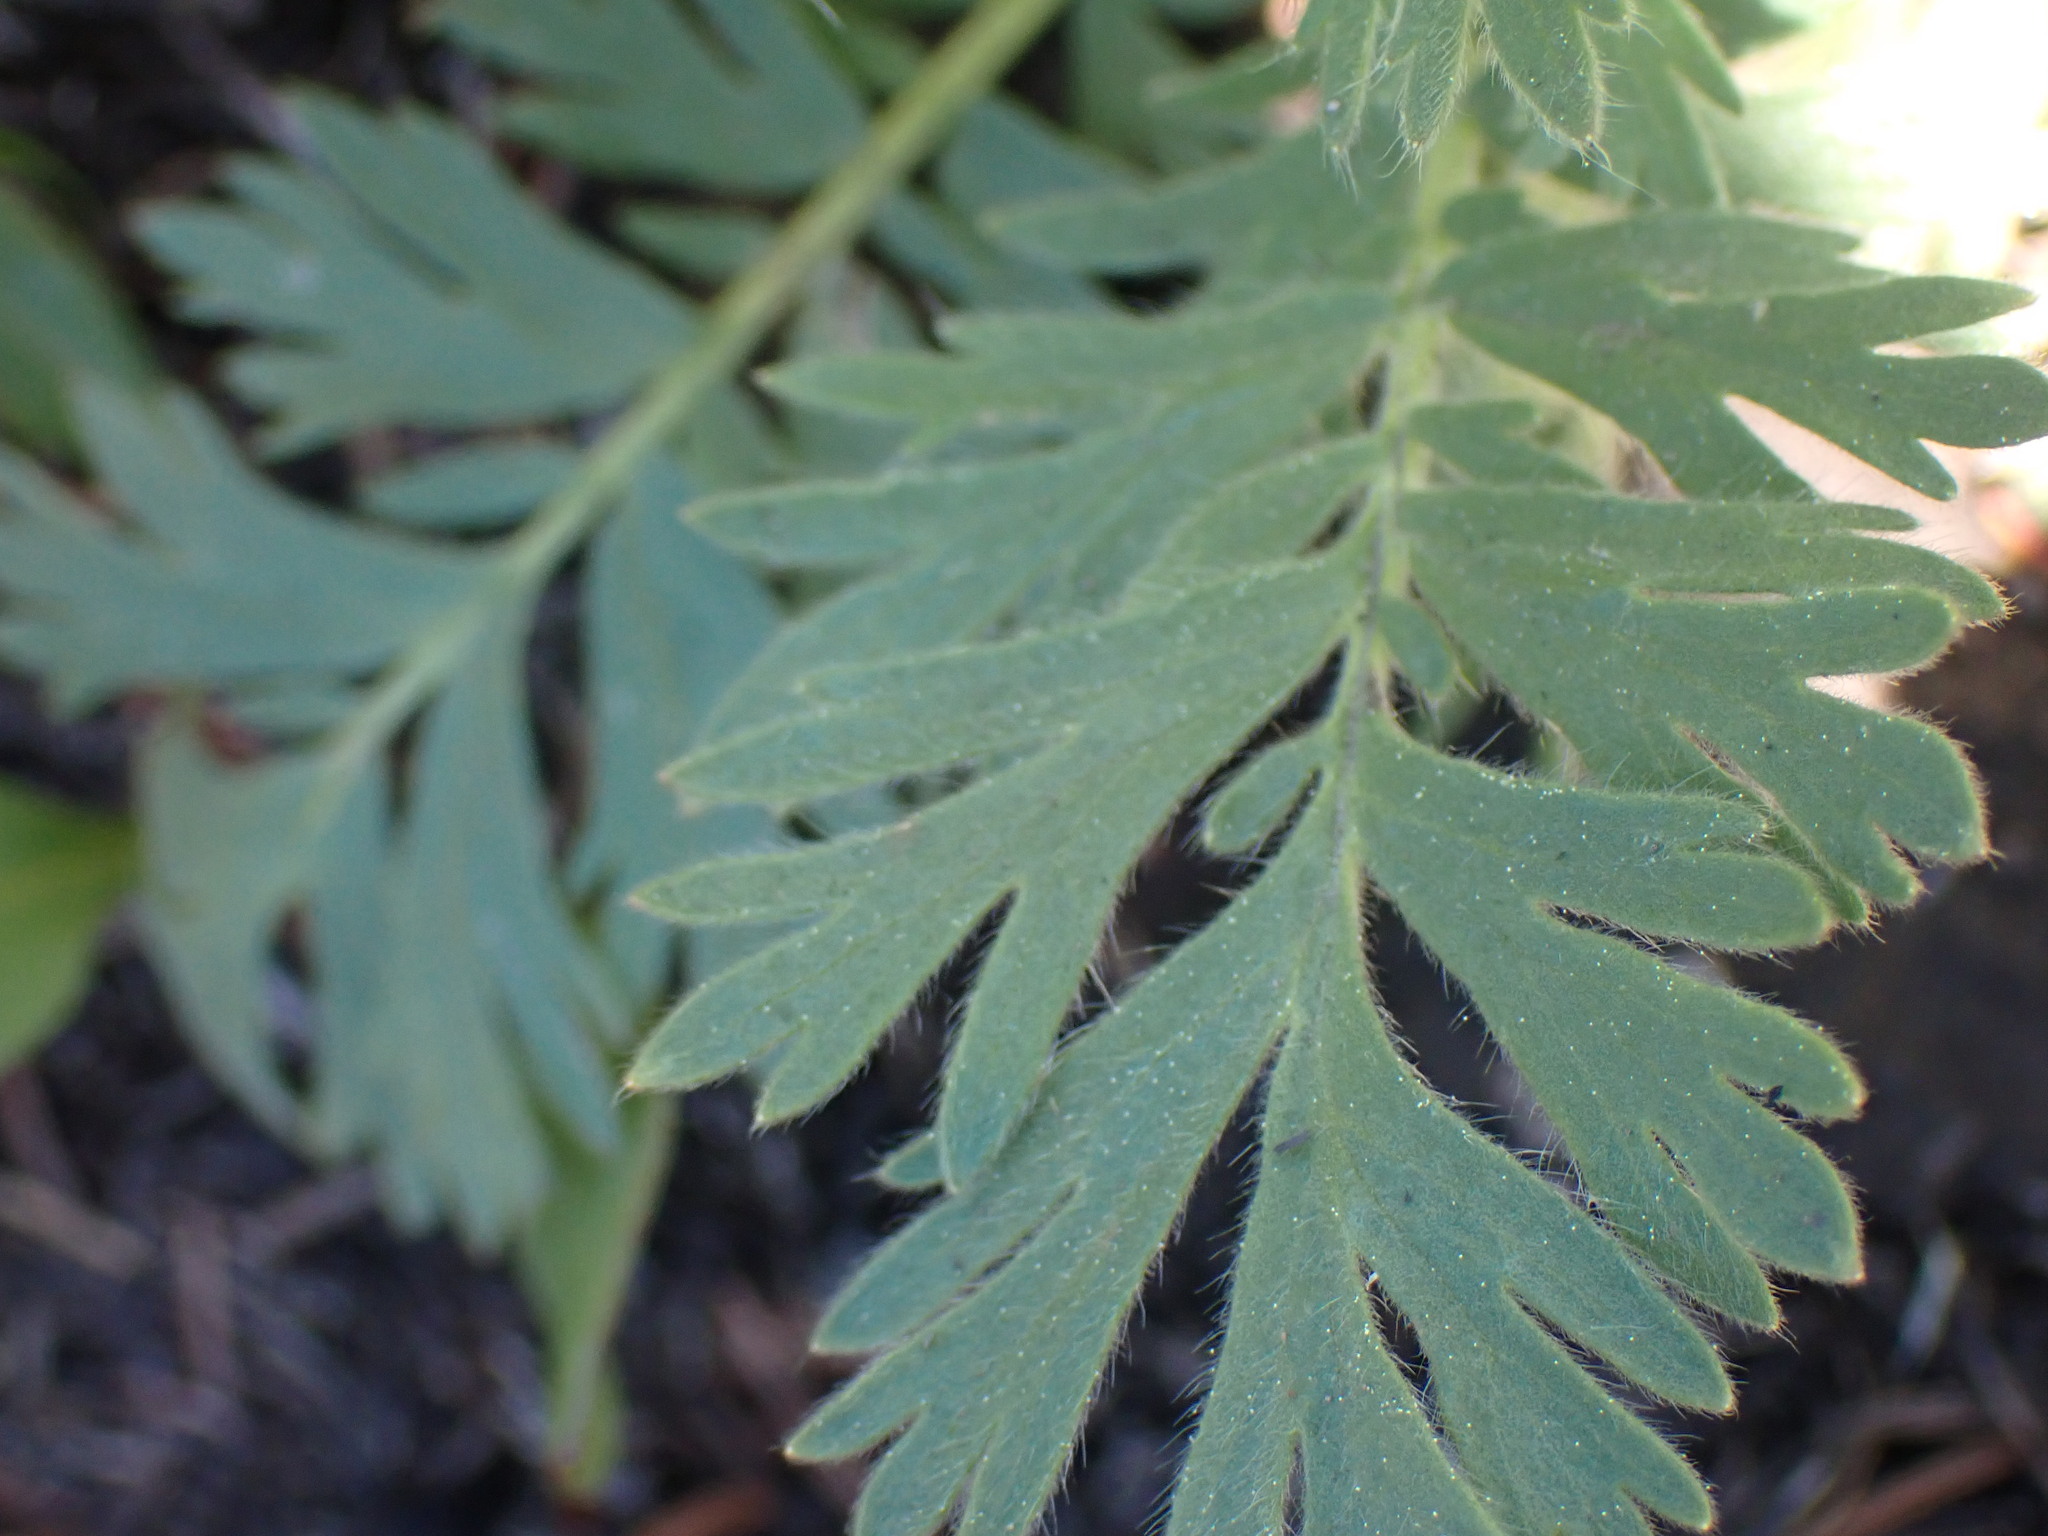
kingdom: Plantae
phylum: Tracheophyta
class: Magnoliopsida
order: Rosales
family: Rosaceae
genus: Geum
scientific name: Geum triflorum
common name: Old man's whiskers
